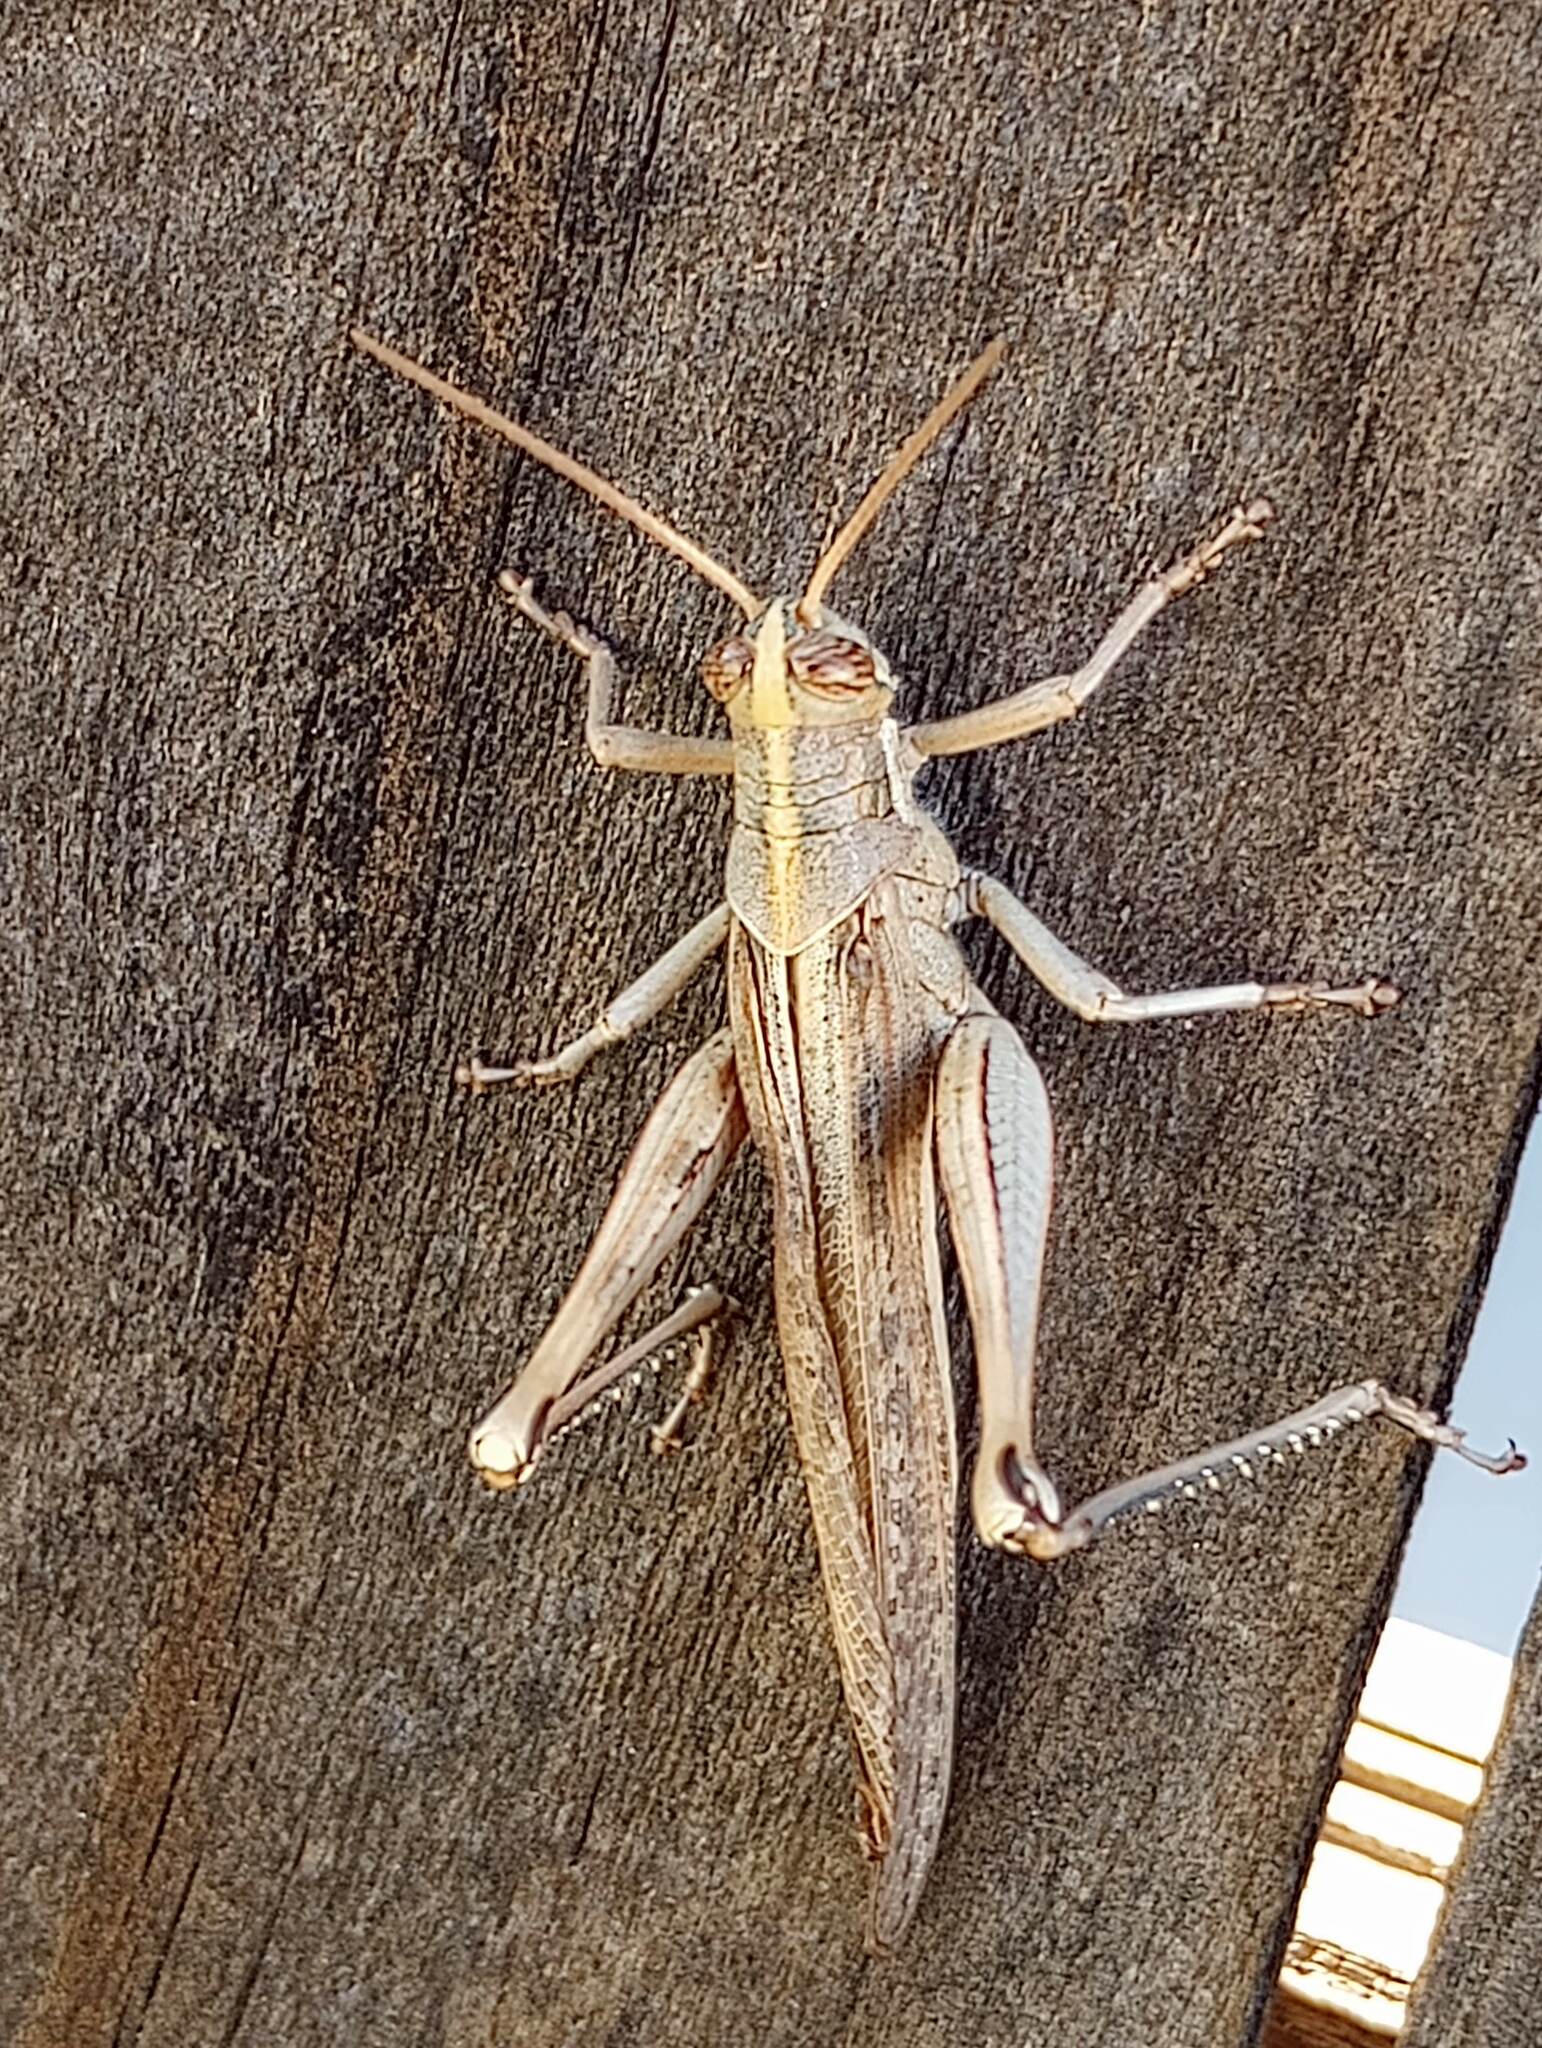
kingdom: Animalia
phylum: Arthropoda
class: Insecta
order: Orthoptera
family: Acrididae
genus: Schistocerca
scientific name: Schistocerca nitens
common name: Vagrant grasshopper
